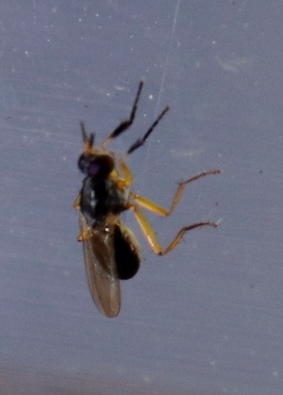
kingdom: Animalia
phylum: Arthropoda
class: Insecta
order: Diptera
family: Muscidae
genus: Anaphalantus
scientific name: Anaphalantus longicornis
